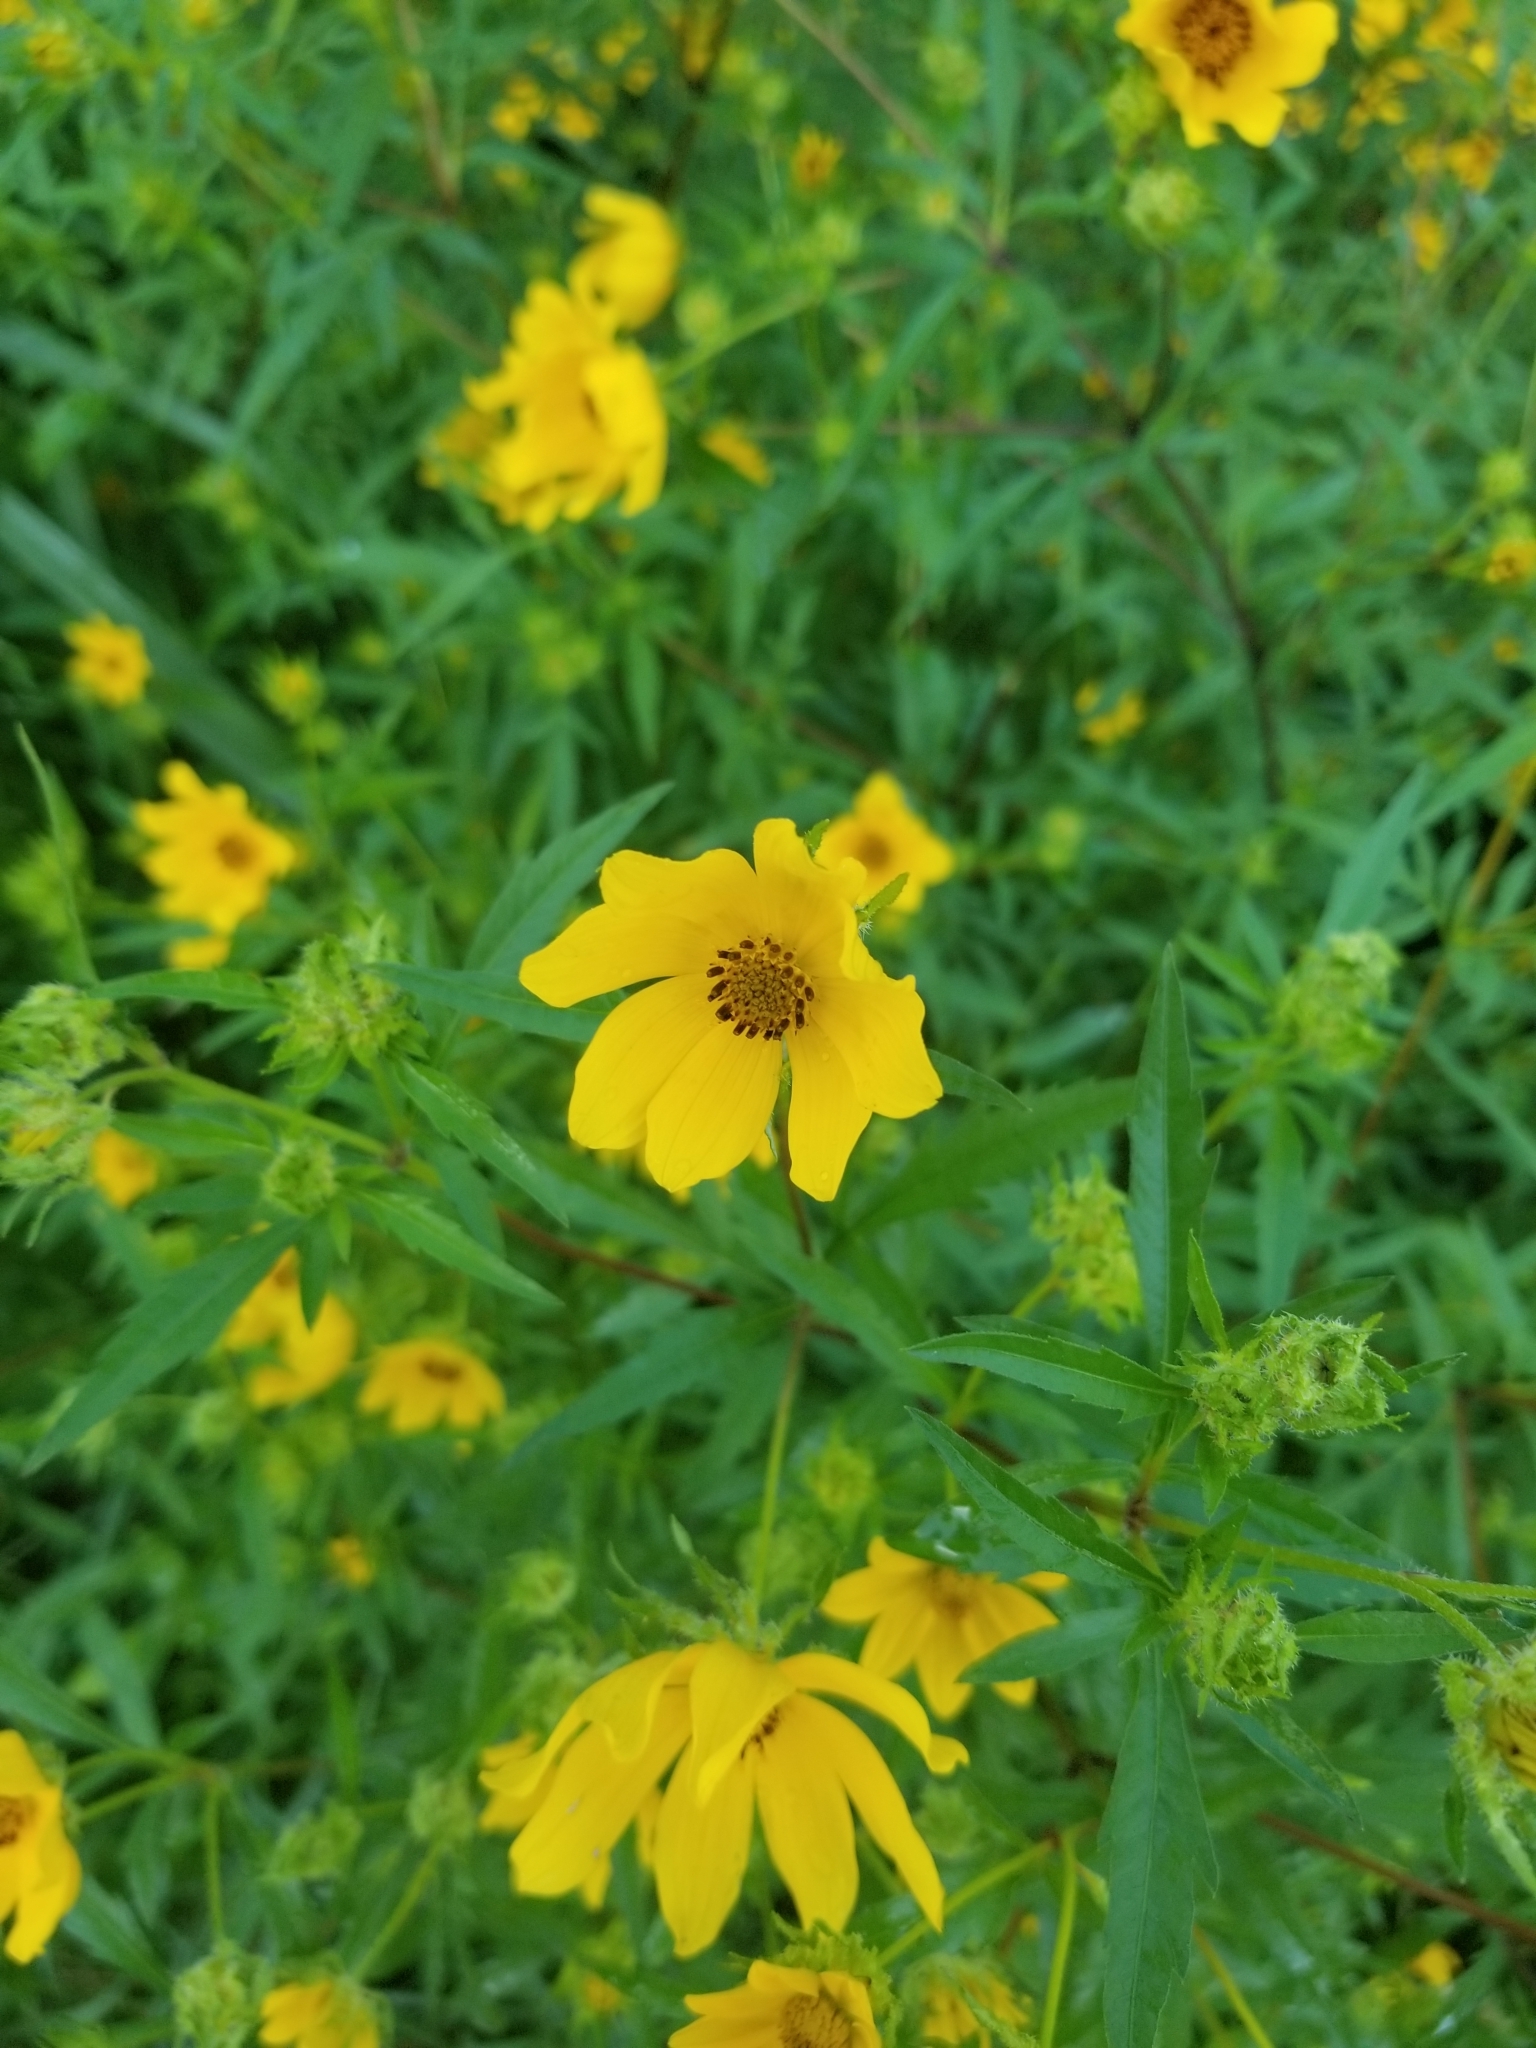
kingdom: Plantae
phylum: Tracheophyta
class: Magnoliopsida
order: Asterales
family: Asteraceae
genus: Bidens
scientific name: Bidens aristosa
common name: Western tickseed
